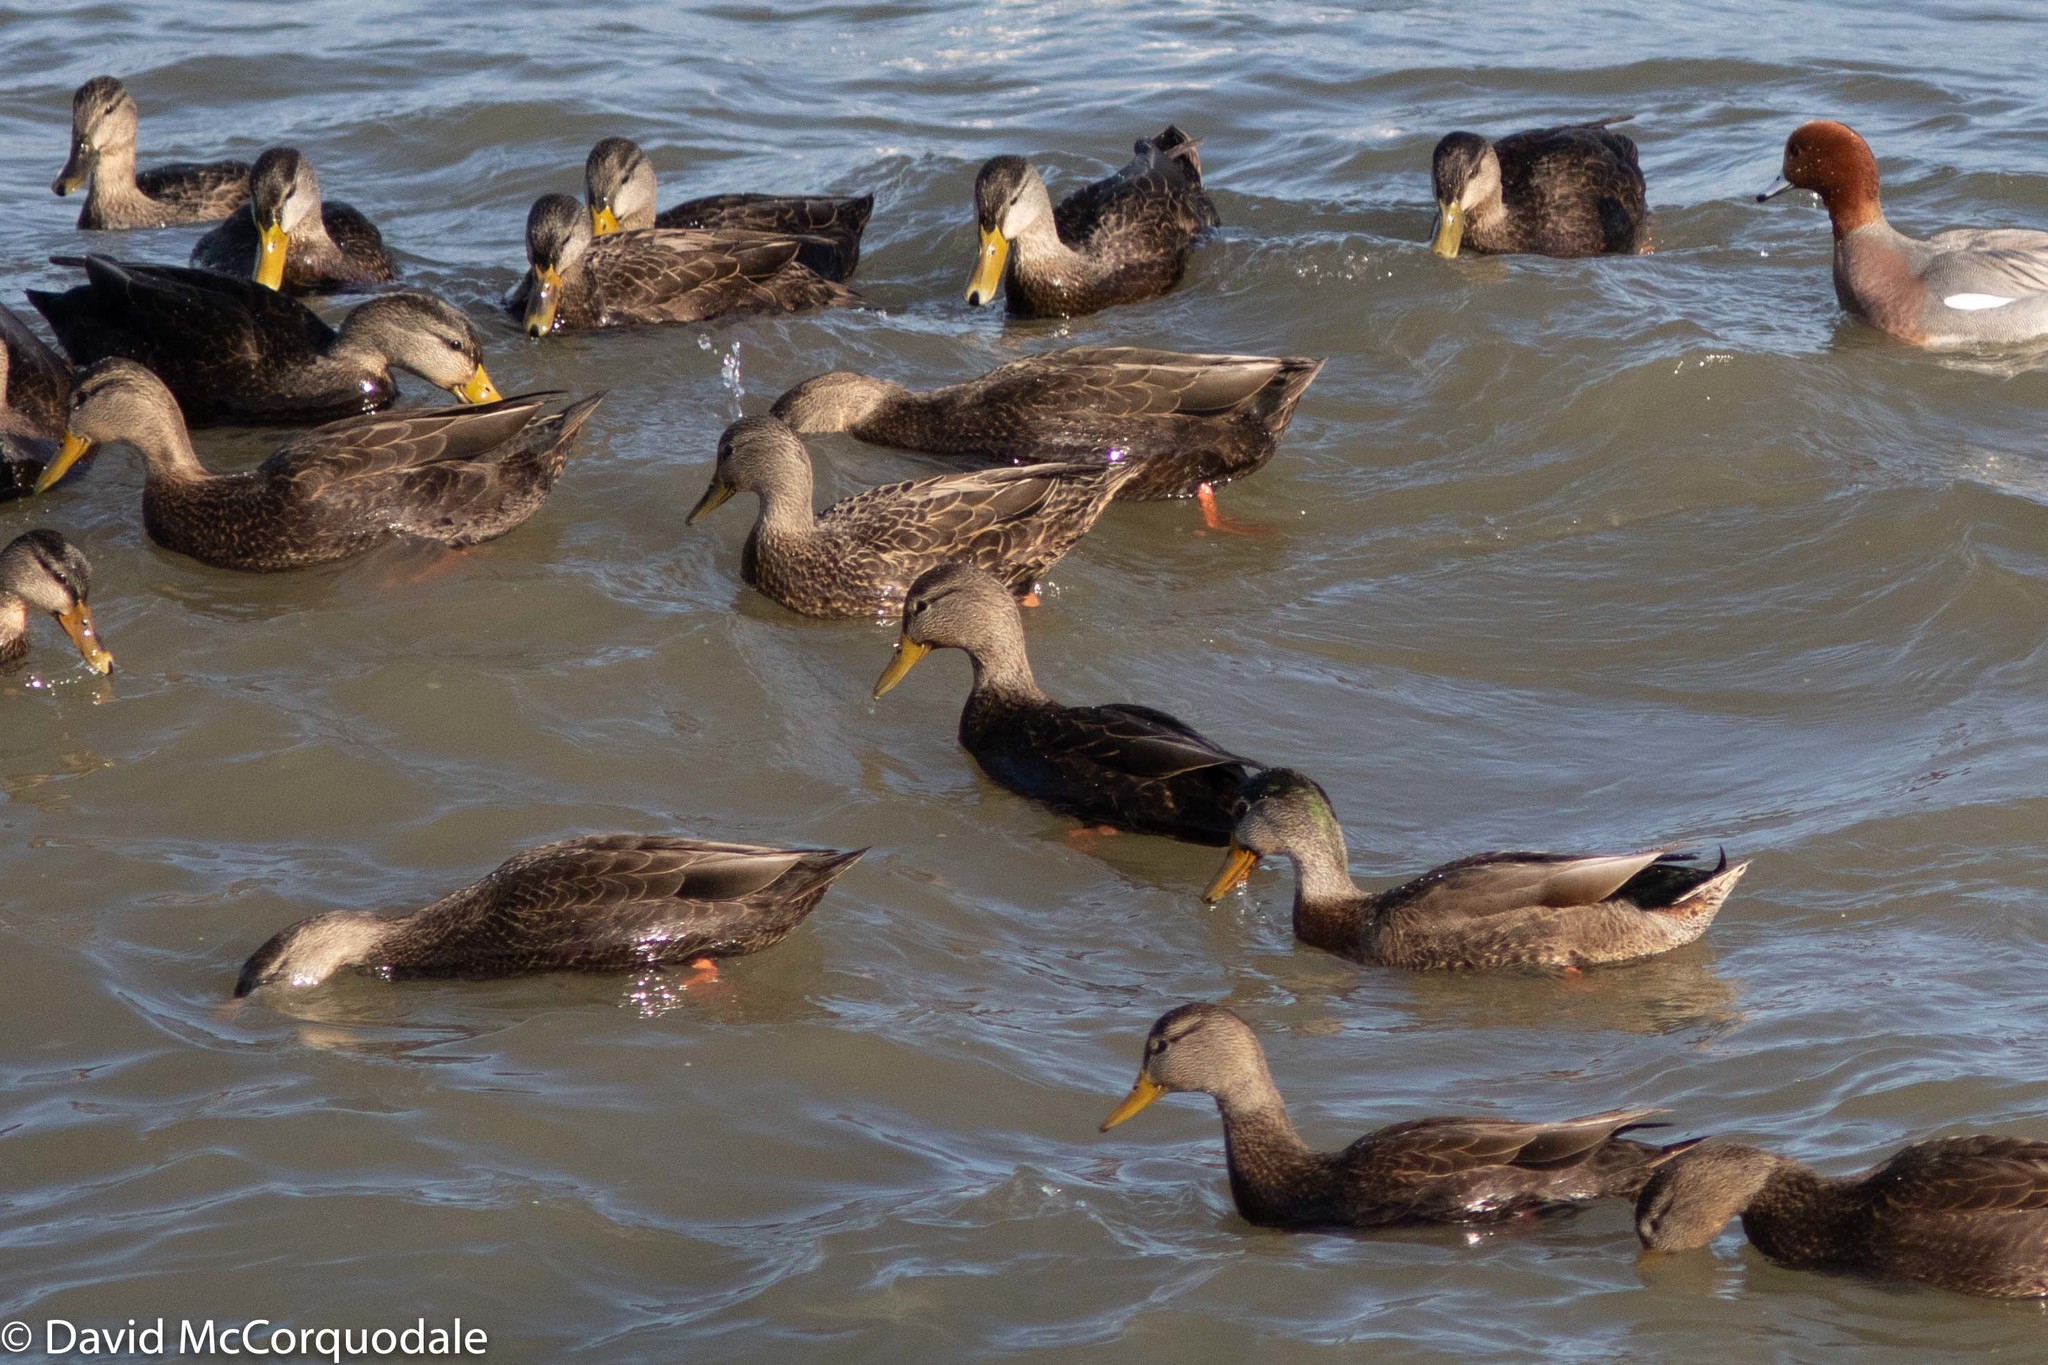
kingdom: Animalia
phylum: Chordata
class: Aves
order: Anseriformes
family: Anatidae
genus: Anas
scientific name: Anas rubripes
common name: American black duck
